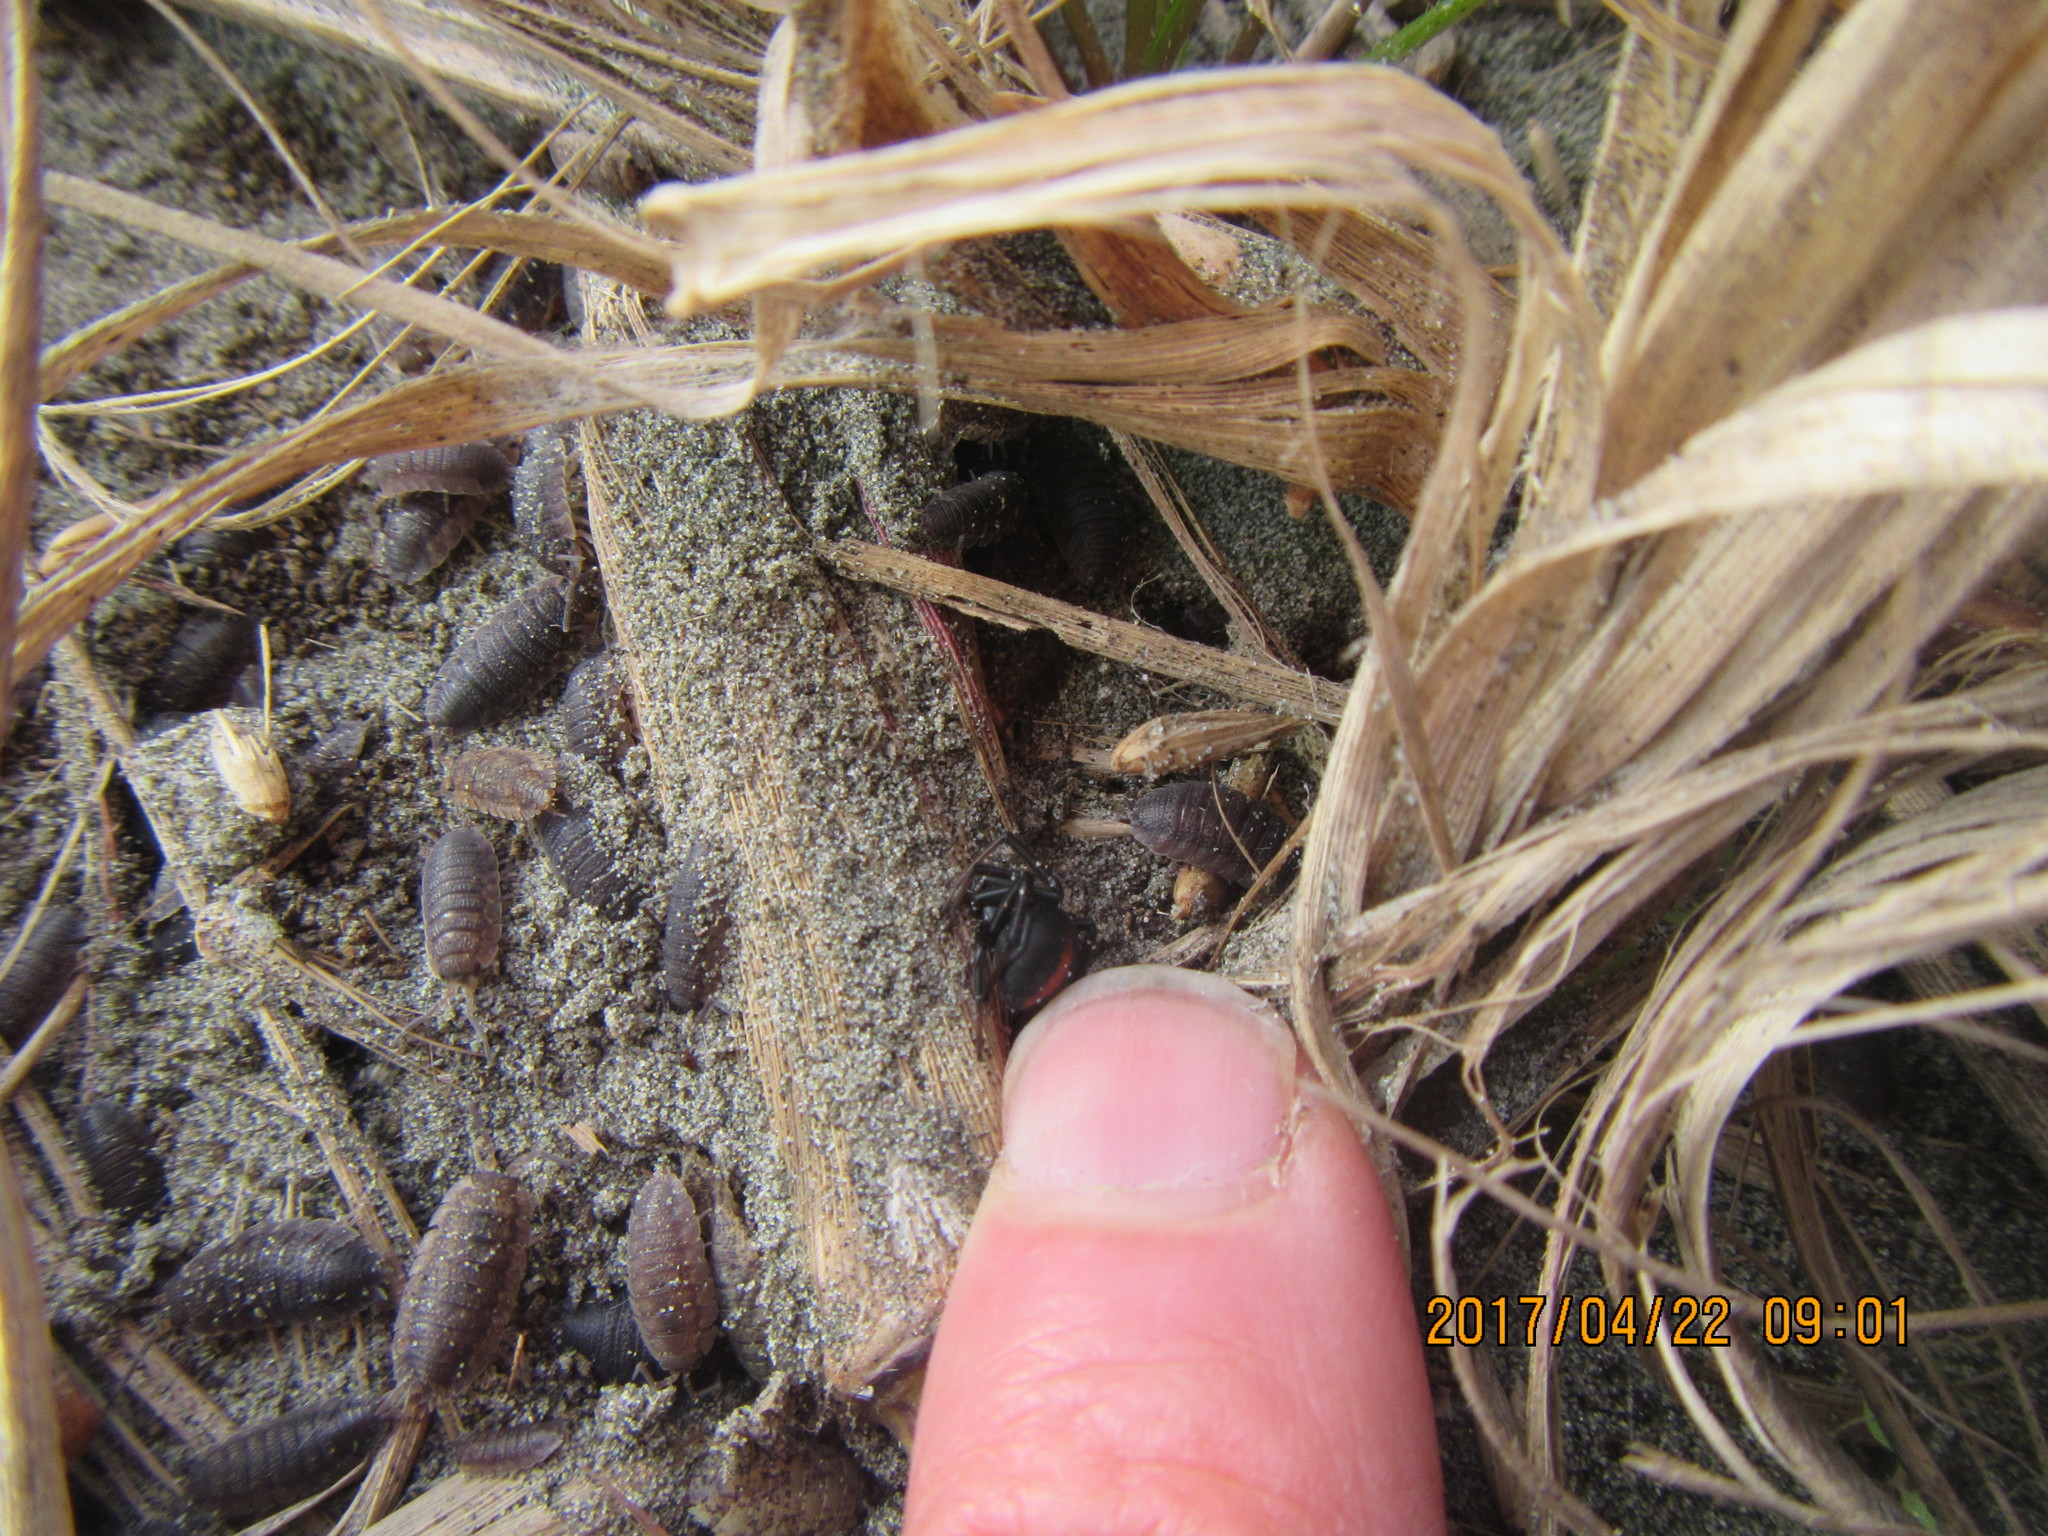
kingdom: Animalia
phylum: Arthropoda
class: Arachnida
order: Araneae
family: Theridiidae
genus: Latrodectus
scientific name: Latrodectus katipo
